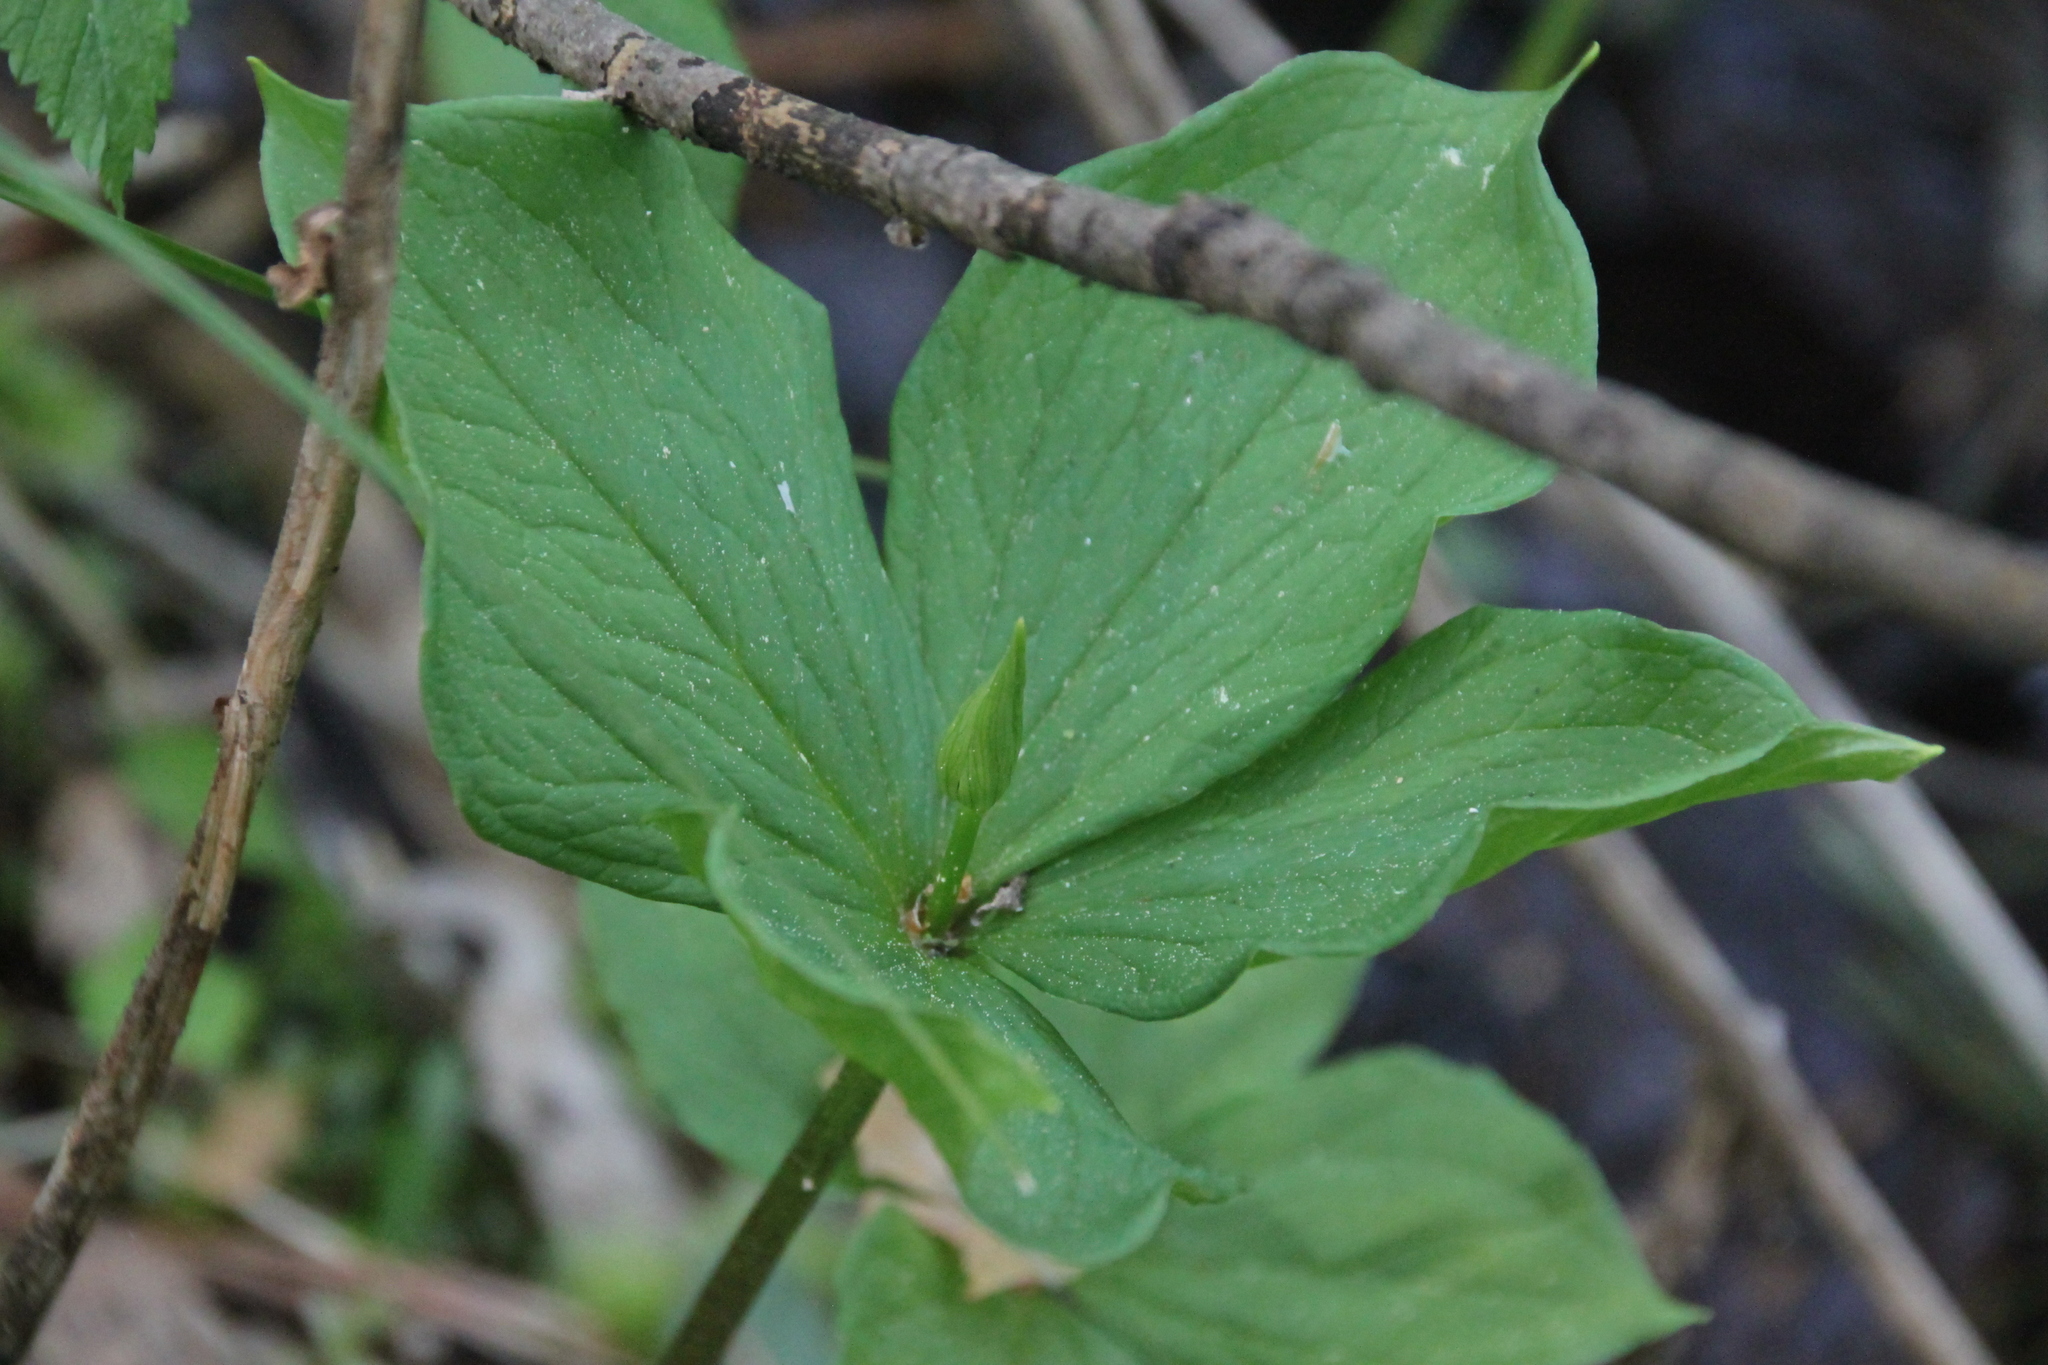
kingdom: Plantae
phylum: Tracheophyta
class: Liliopsida
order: Liliales
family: Melanthiaceae
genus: Paris
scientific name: Paris quadrifolia
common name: Herb-paris
